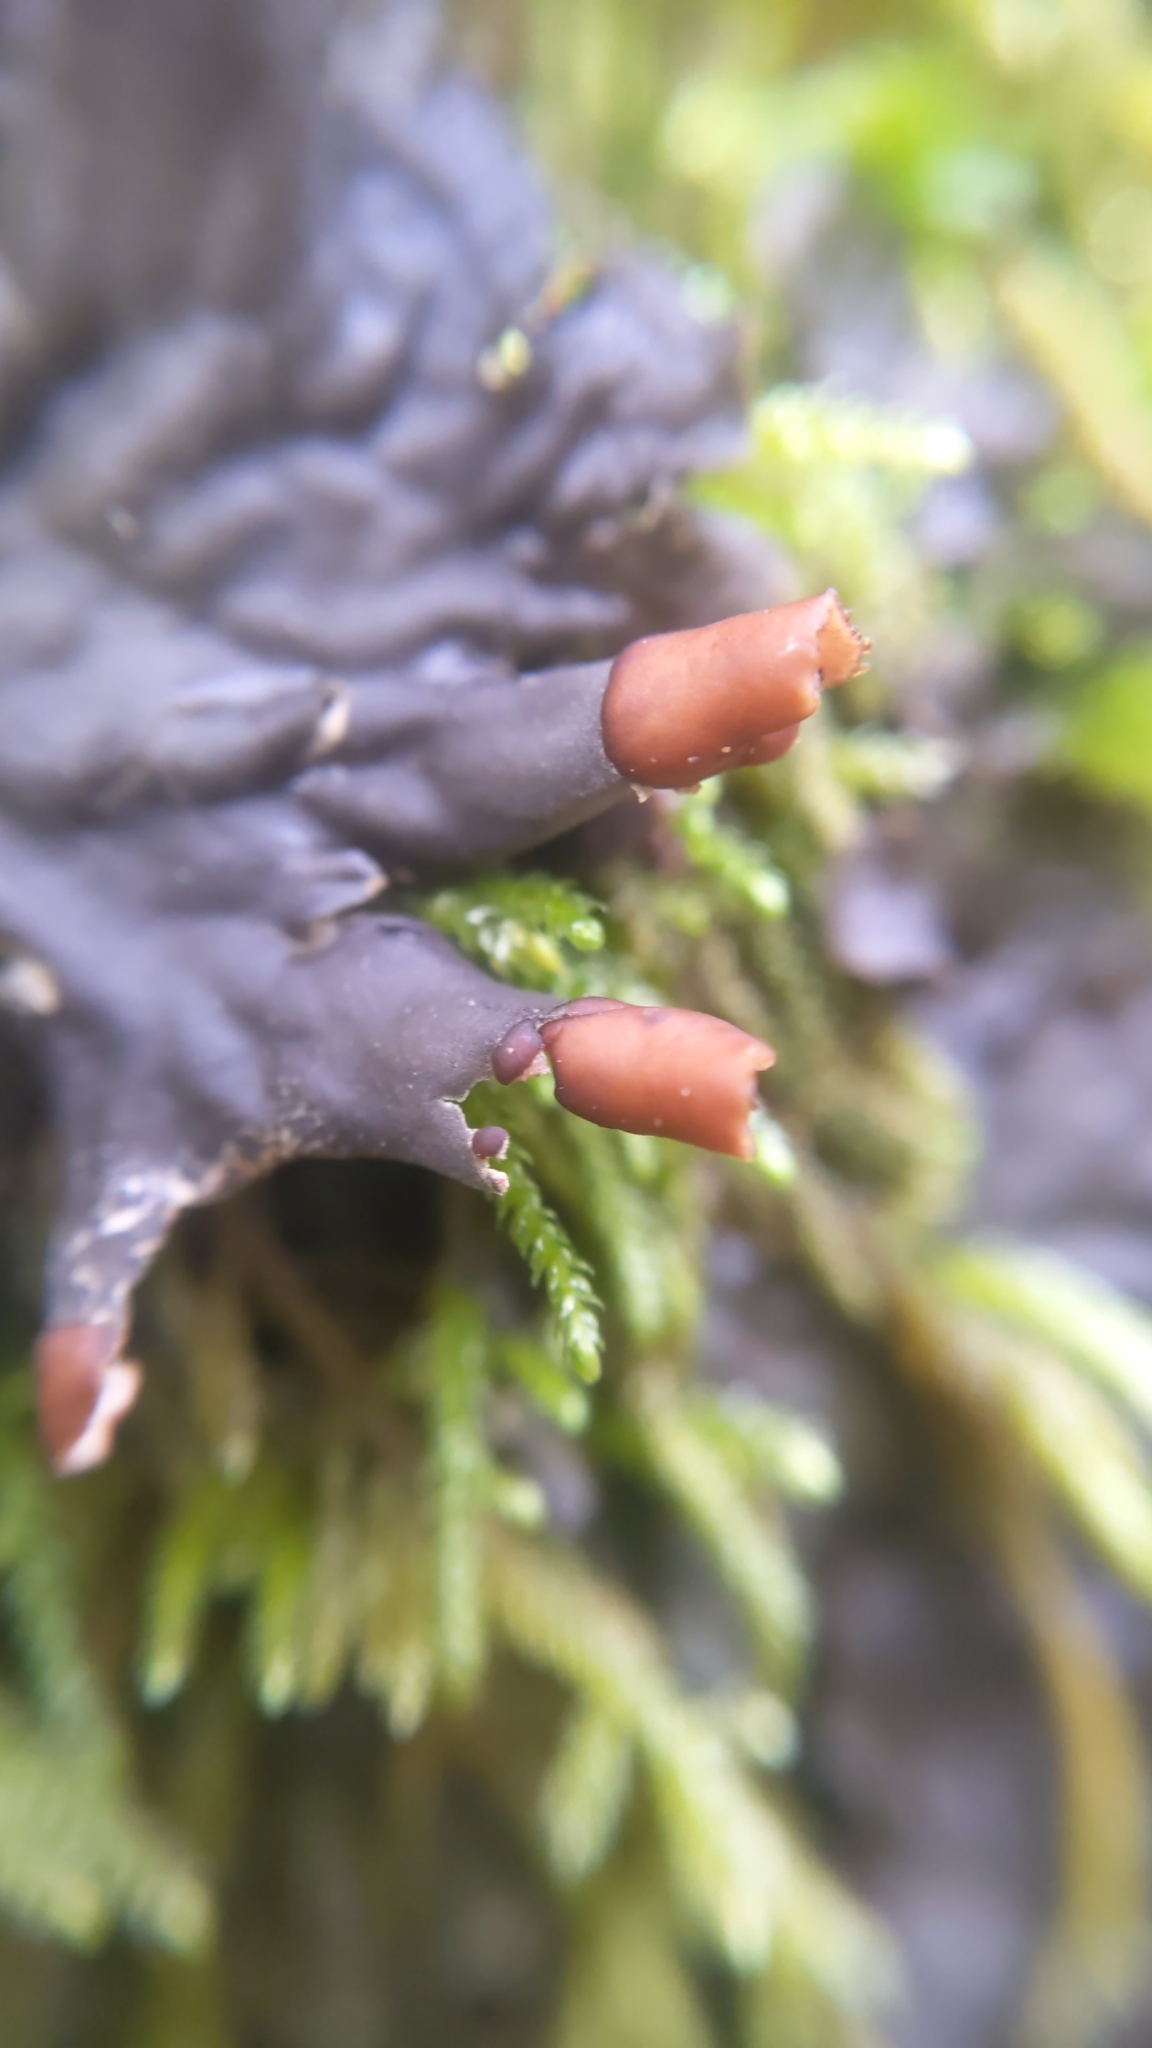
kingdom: Fungi
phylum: Ascomycota
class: Lecanoromycetes
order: Peltigerales
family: Peltigeraceae
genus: Peltigera
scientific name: Peltigera membranacea
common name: Membranous pelt lichen
